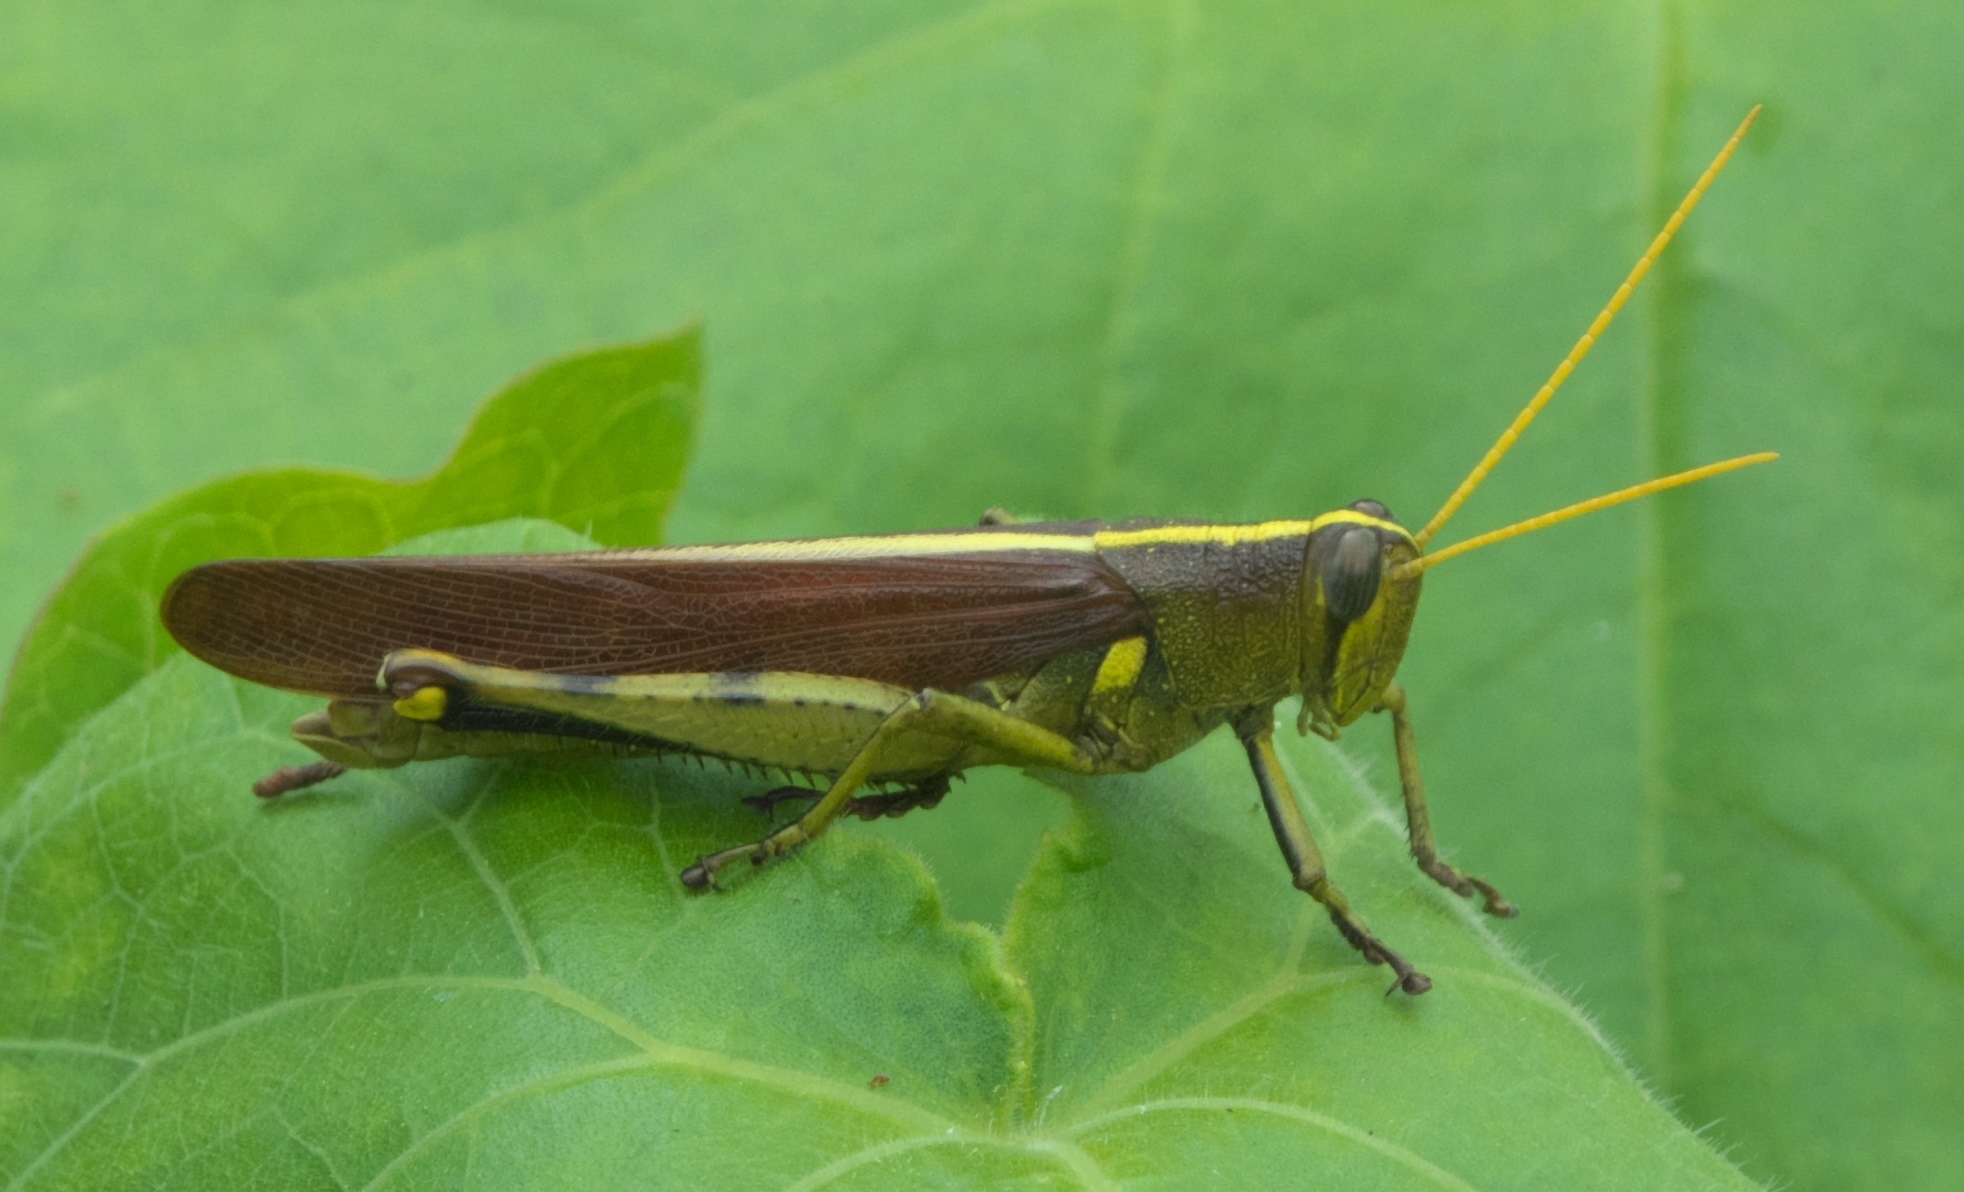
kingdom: Animalia
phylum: Arthropoda
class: Insecta
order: Orthoptera
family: Acrididae
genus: Schistocerca
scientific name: Schistocerca obscura
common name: Obscure bird grasshopper
